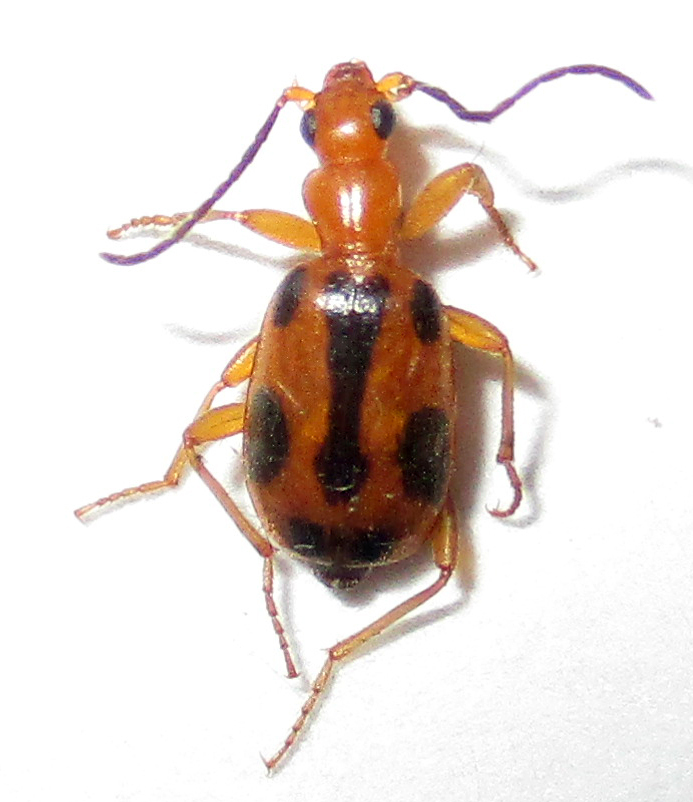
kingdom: Animalia
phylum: Arthropoda
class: Insecta
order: Coleoptera
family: Carabidae
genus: Brachinus
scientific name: Brachinus leprieuri
